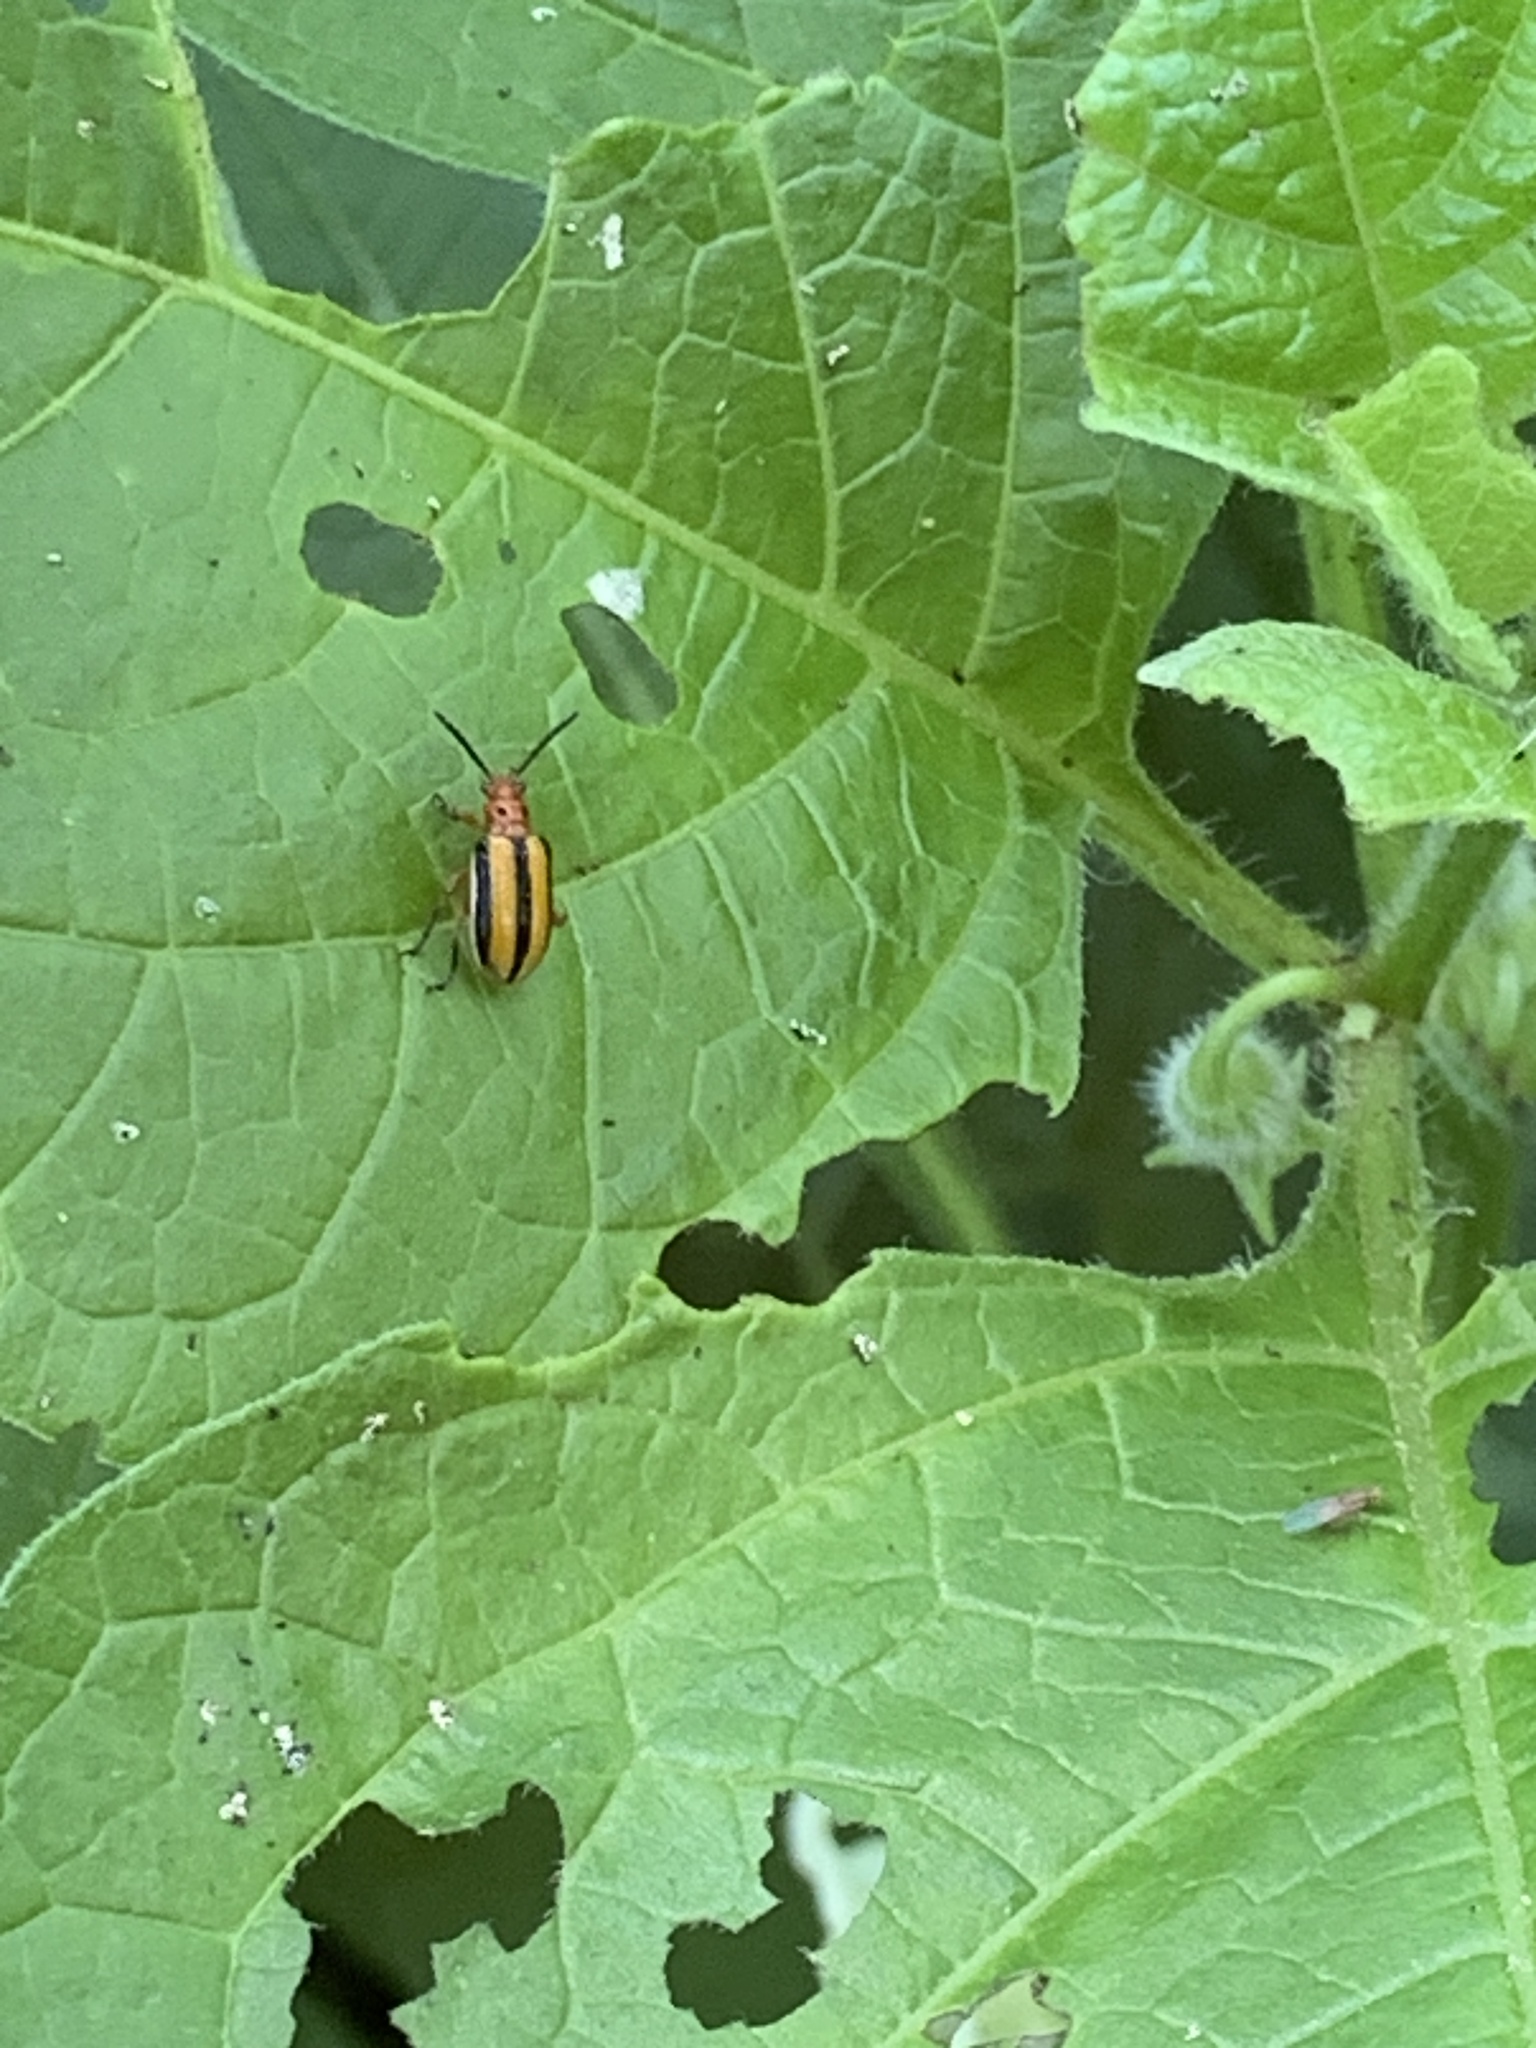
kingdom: Animalia
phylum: Arthropoda
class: Insecta
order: Coleoptera
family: Chrysomelidae
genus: Lema
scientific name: Lema daturaphila
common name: Leaf beetle
